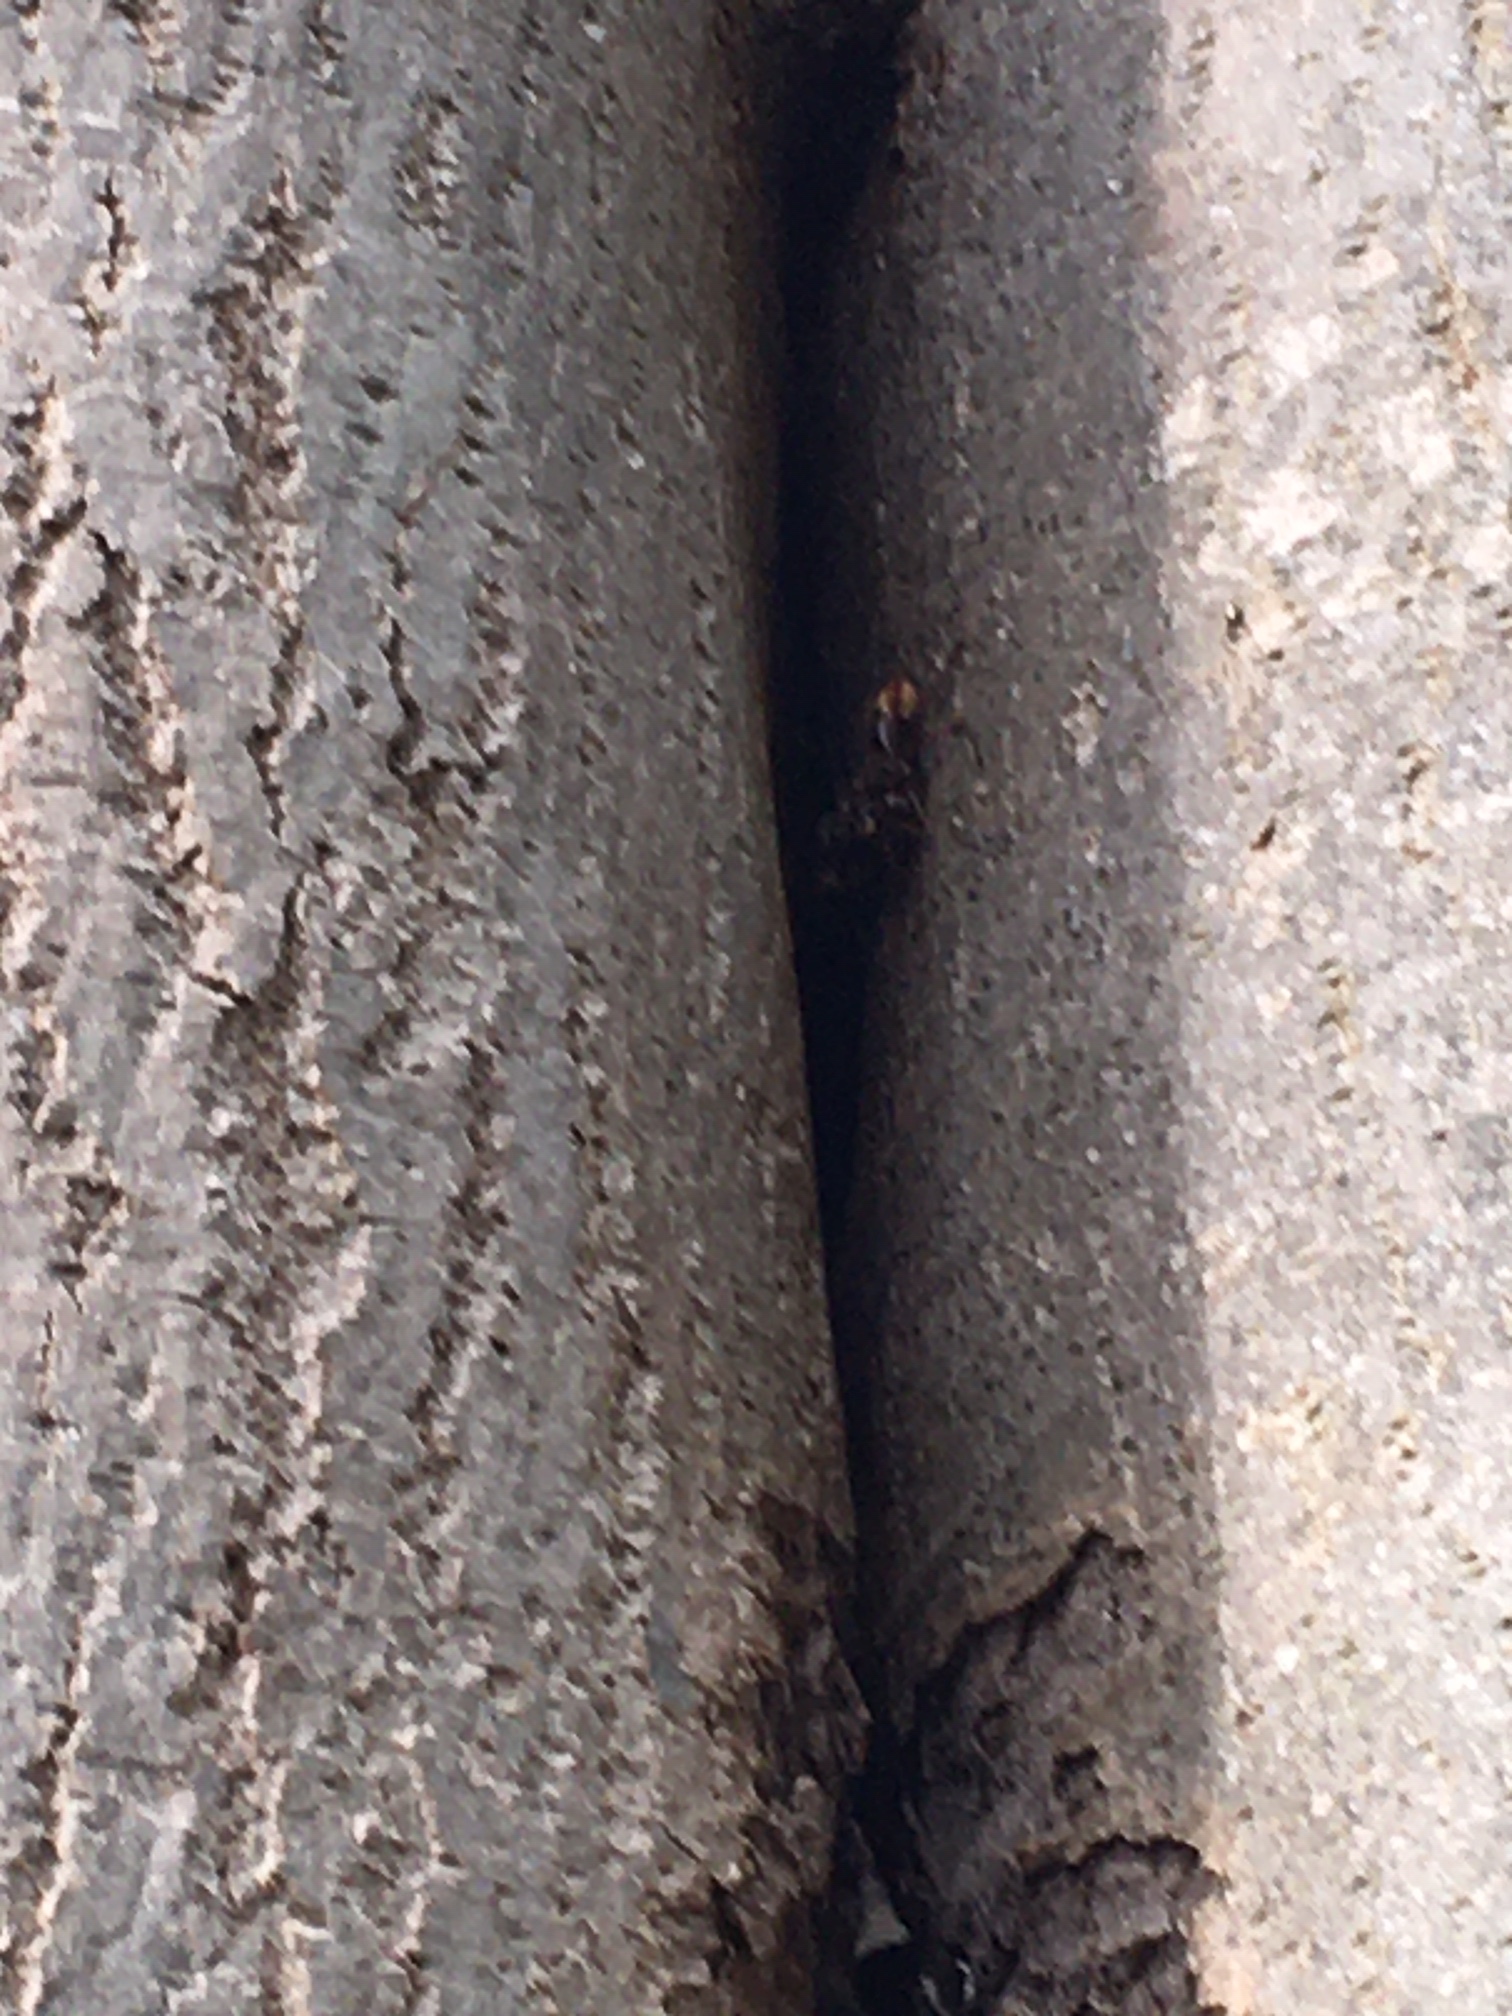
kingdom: Animalia
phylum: Arthropoda
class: Insecta
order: Hymenoptera
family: Vespidae
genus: Vespa
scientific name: Vespa crabro
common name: Hornet
